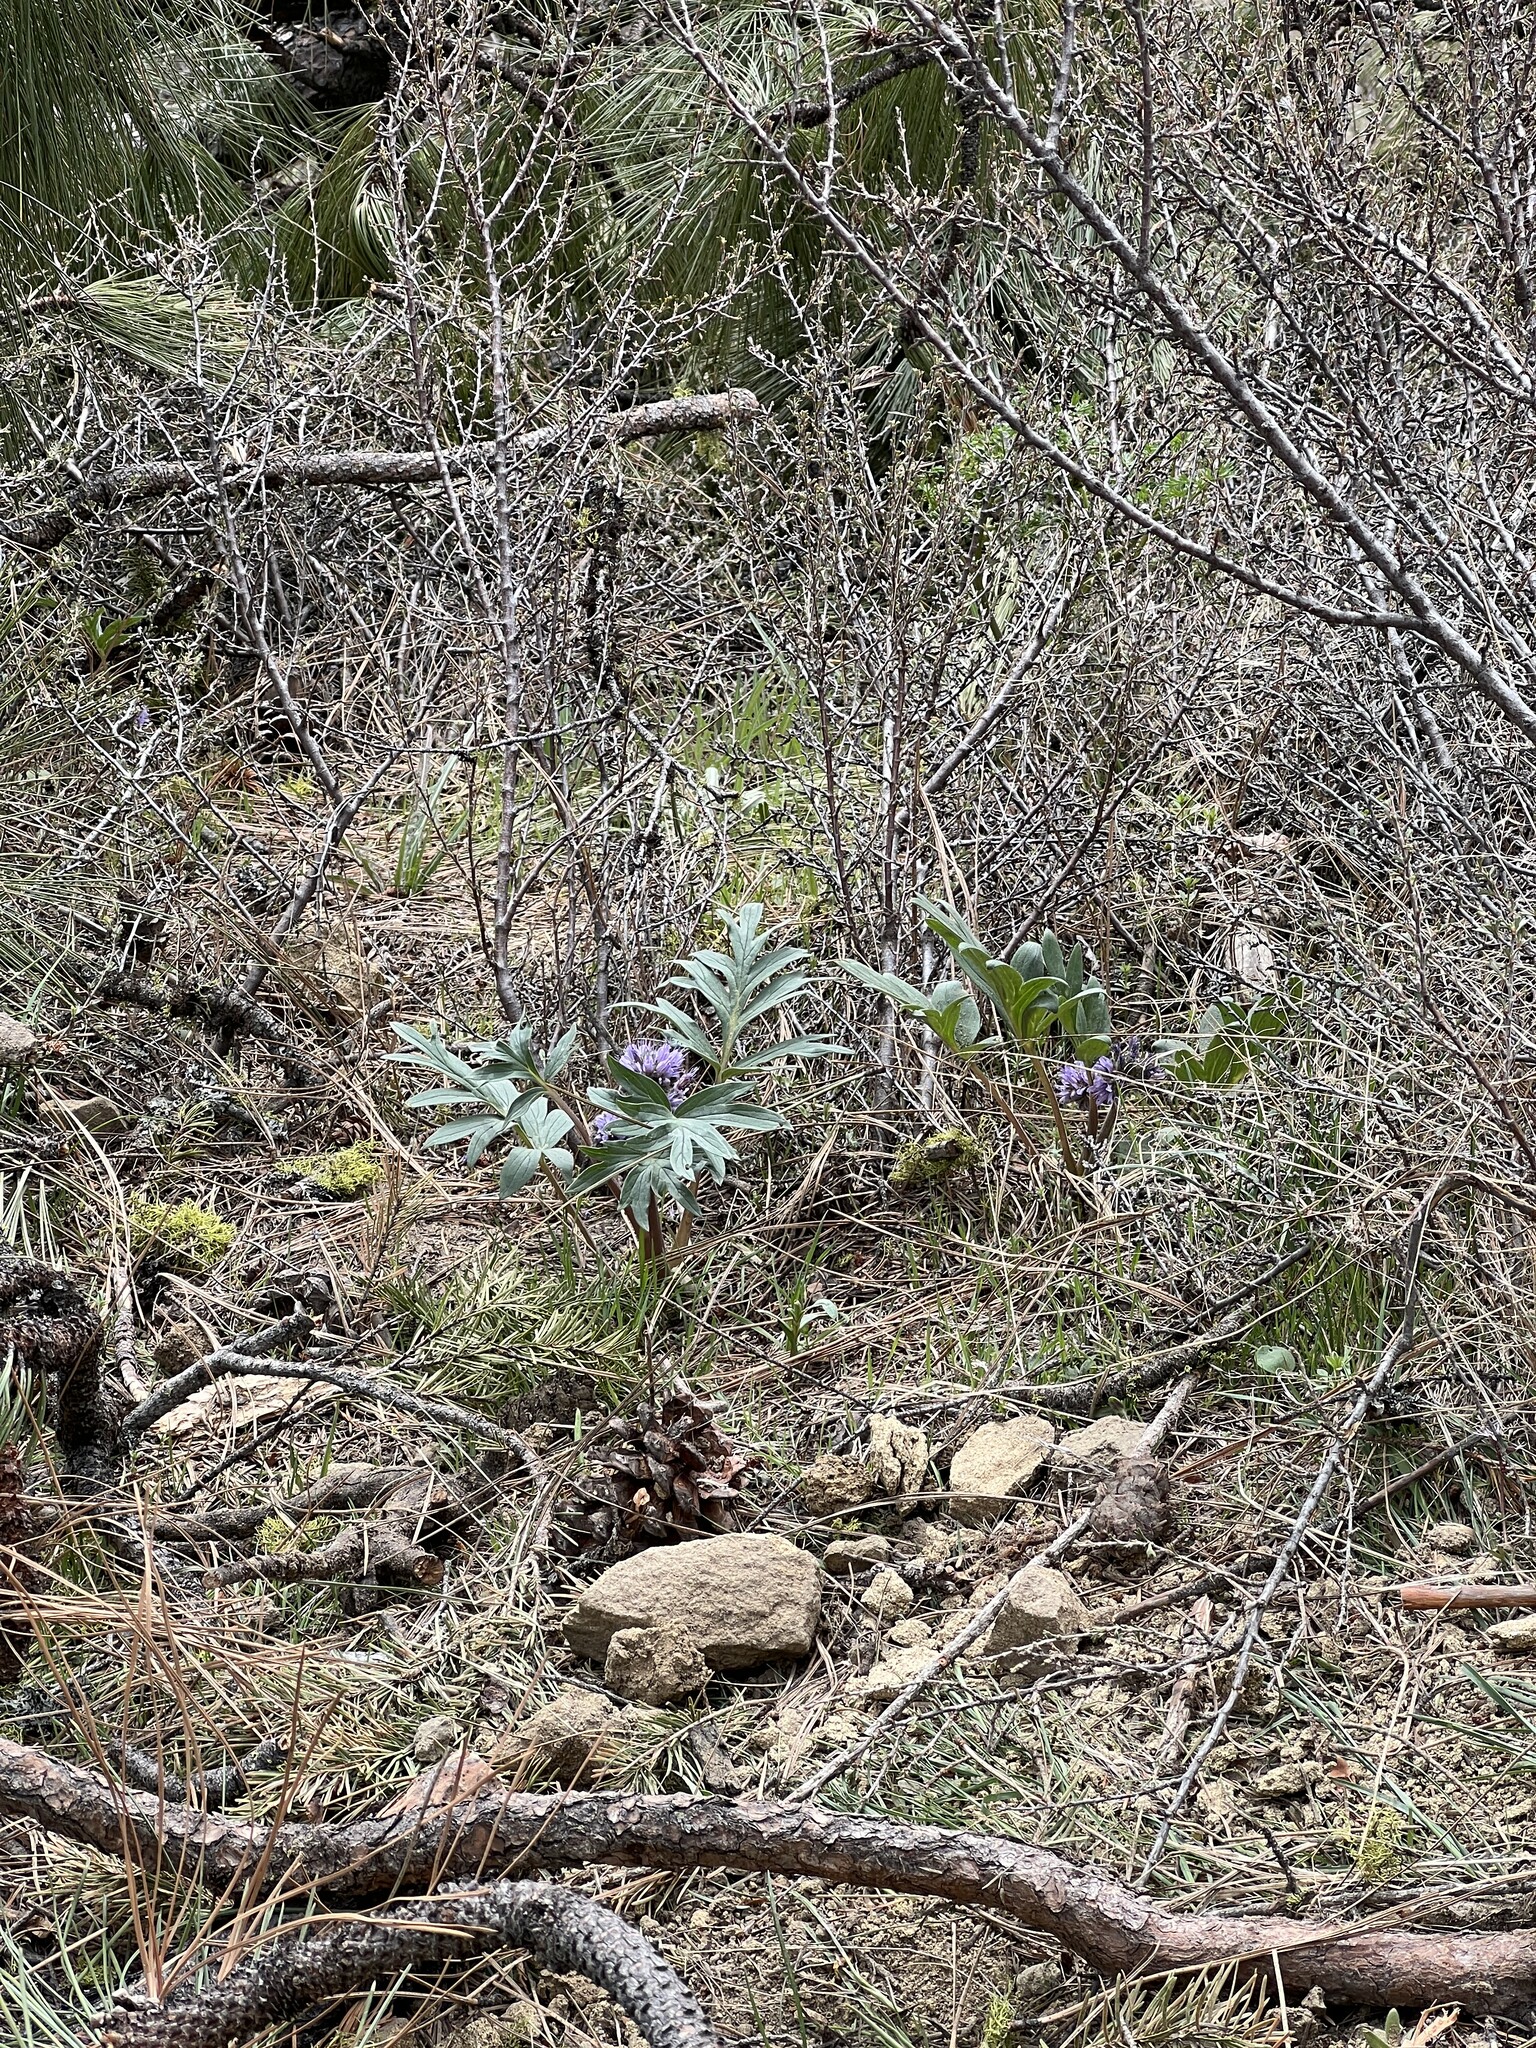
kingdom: Plantae
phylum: Tracheophyta
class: Magnoliopsida
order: Boraginales
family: Hydrophyllaceae
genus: Hydrophyllum
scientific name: Hydrophyllum capitatum
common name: Woollen-breeches
